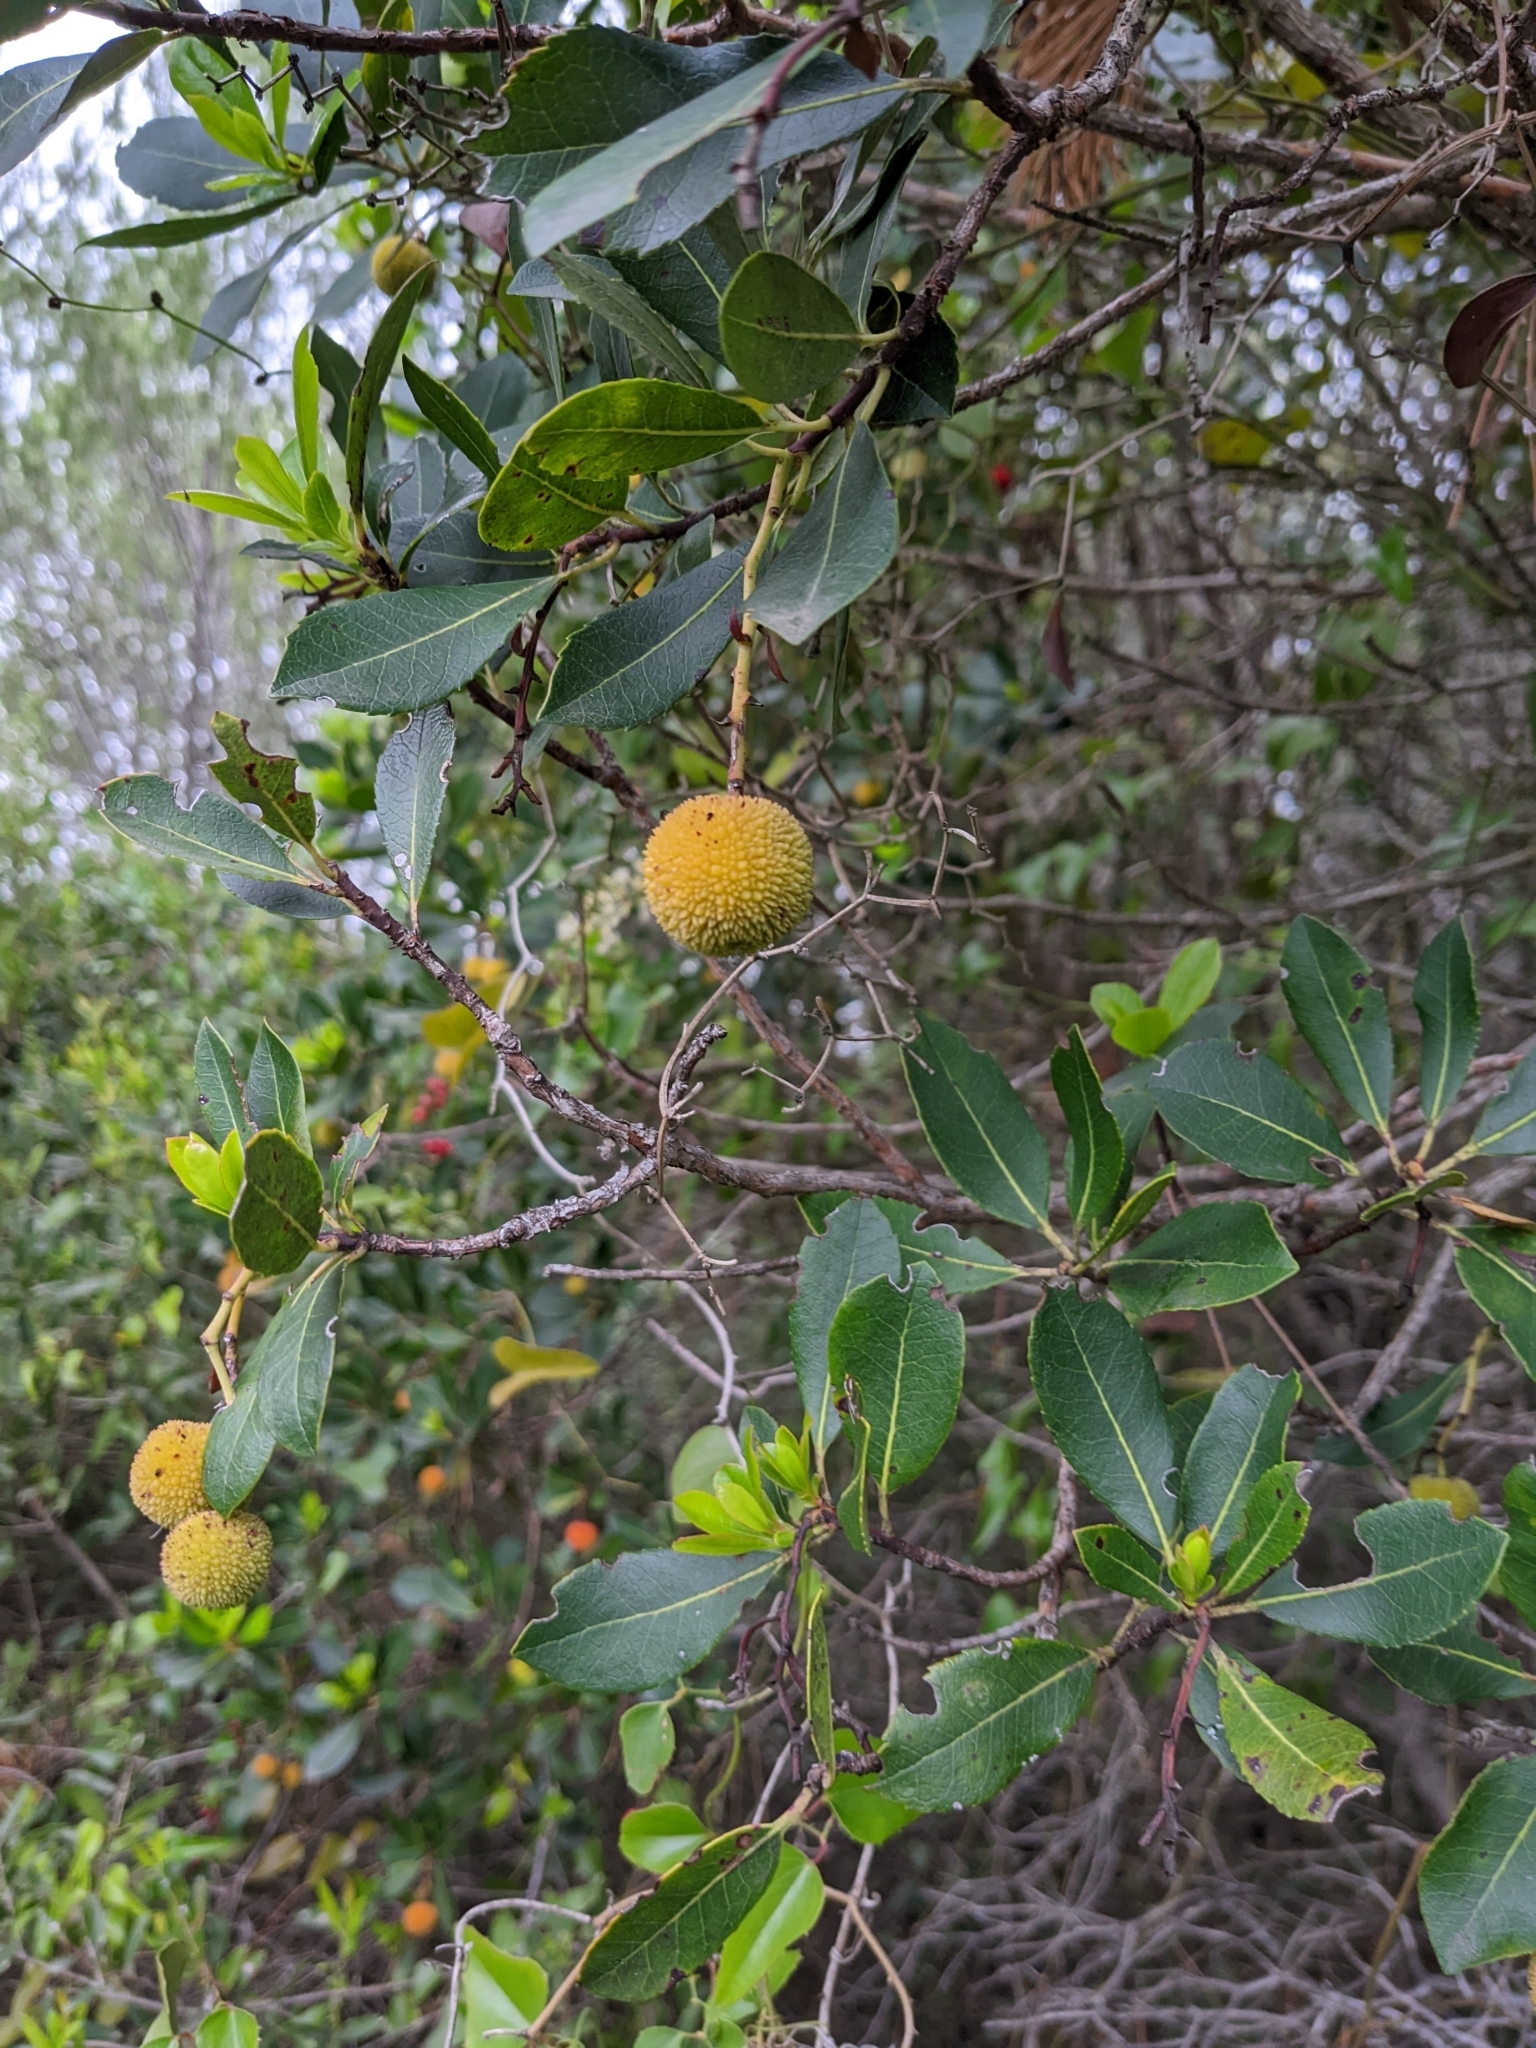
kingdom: Plantae
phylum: Tracheophyta
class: Magnoliopsida
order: Ericales
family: Ericaceae
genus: Arbutus
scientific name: Arbutus unedo
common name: Strawberry-tree
